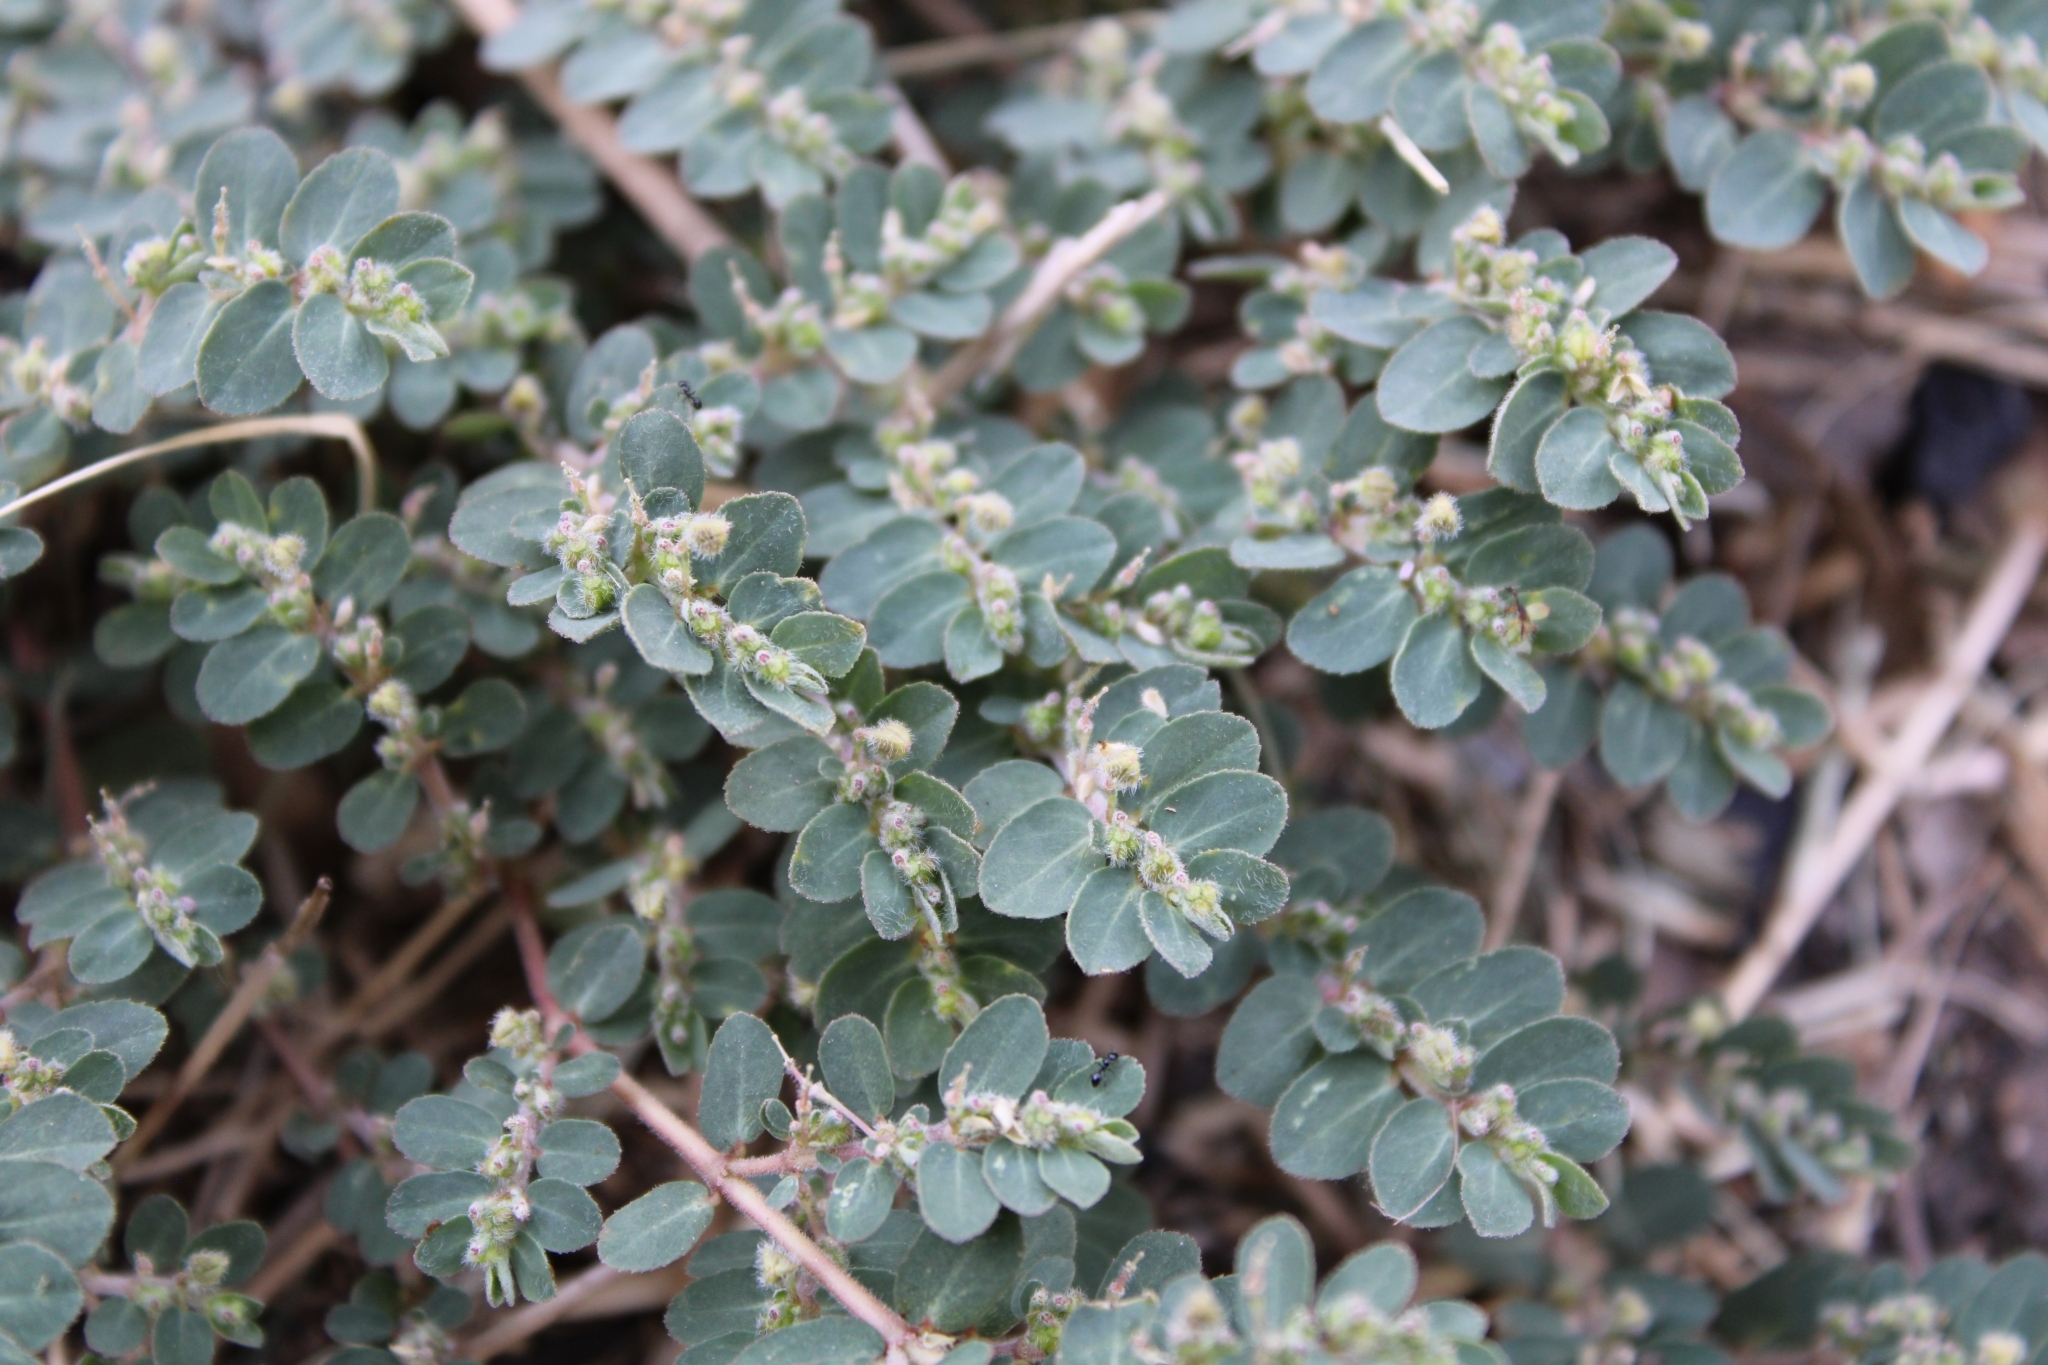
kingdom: Plantae
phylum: Tracheophyta
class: Magnoliopsida
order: Malpighiales
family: Euphorbiaceae
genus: Euphorbia
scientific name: Euphorbia prostrata
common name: Prostrate sandmat
